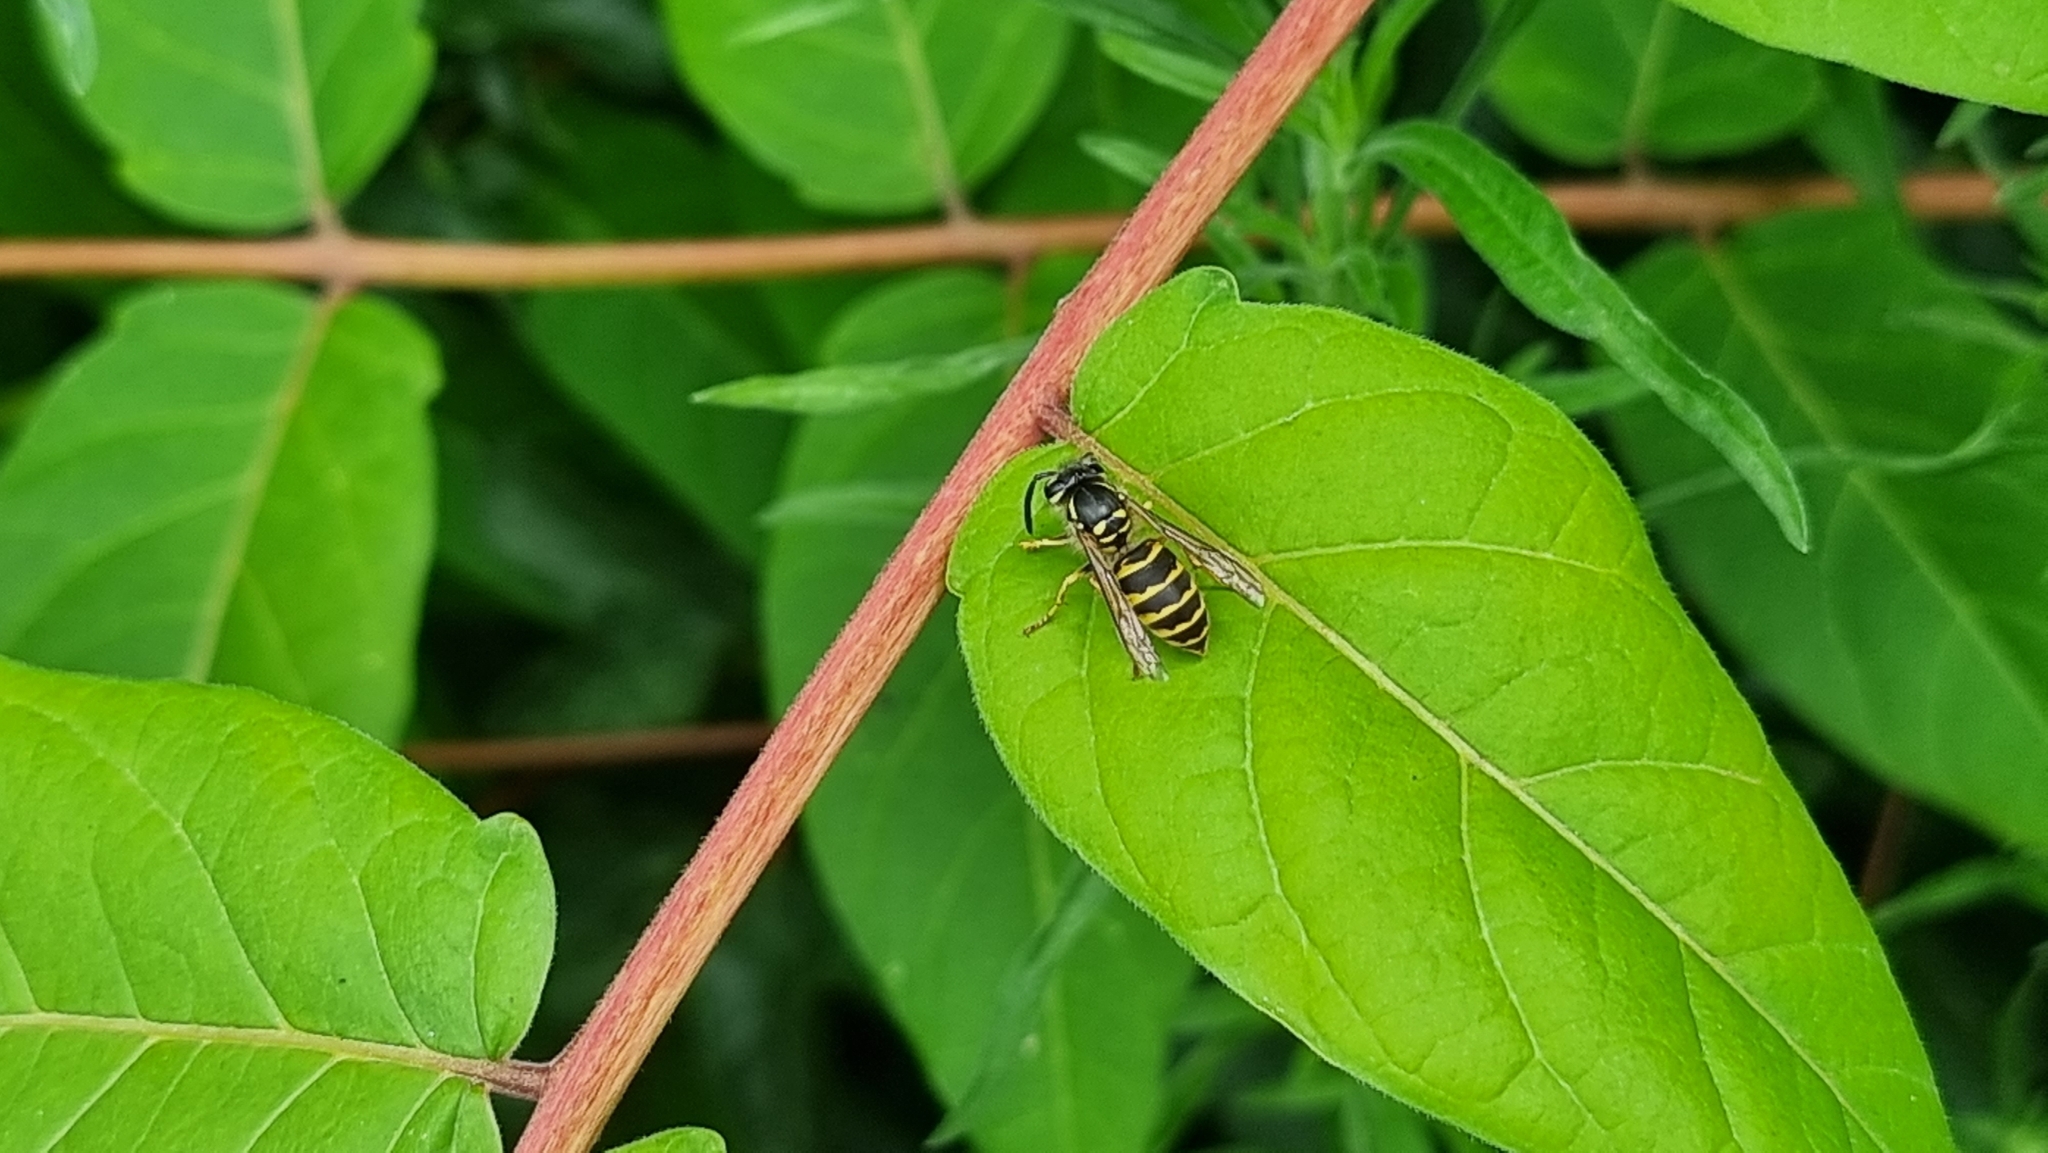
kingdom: Animalia
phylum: Arthropoda
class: Insecta
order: Hymenoptera
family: Vespidae
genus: Vespula
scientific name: Vespula vulgaris
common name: Common wasp
